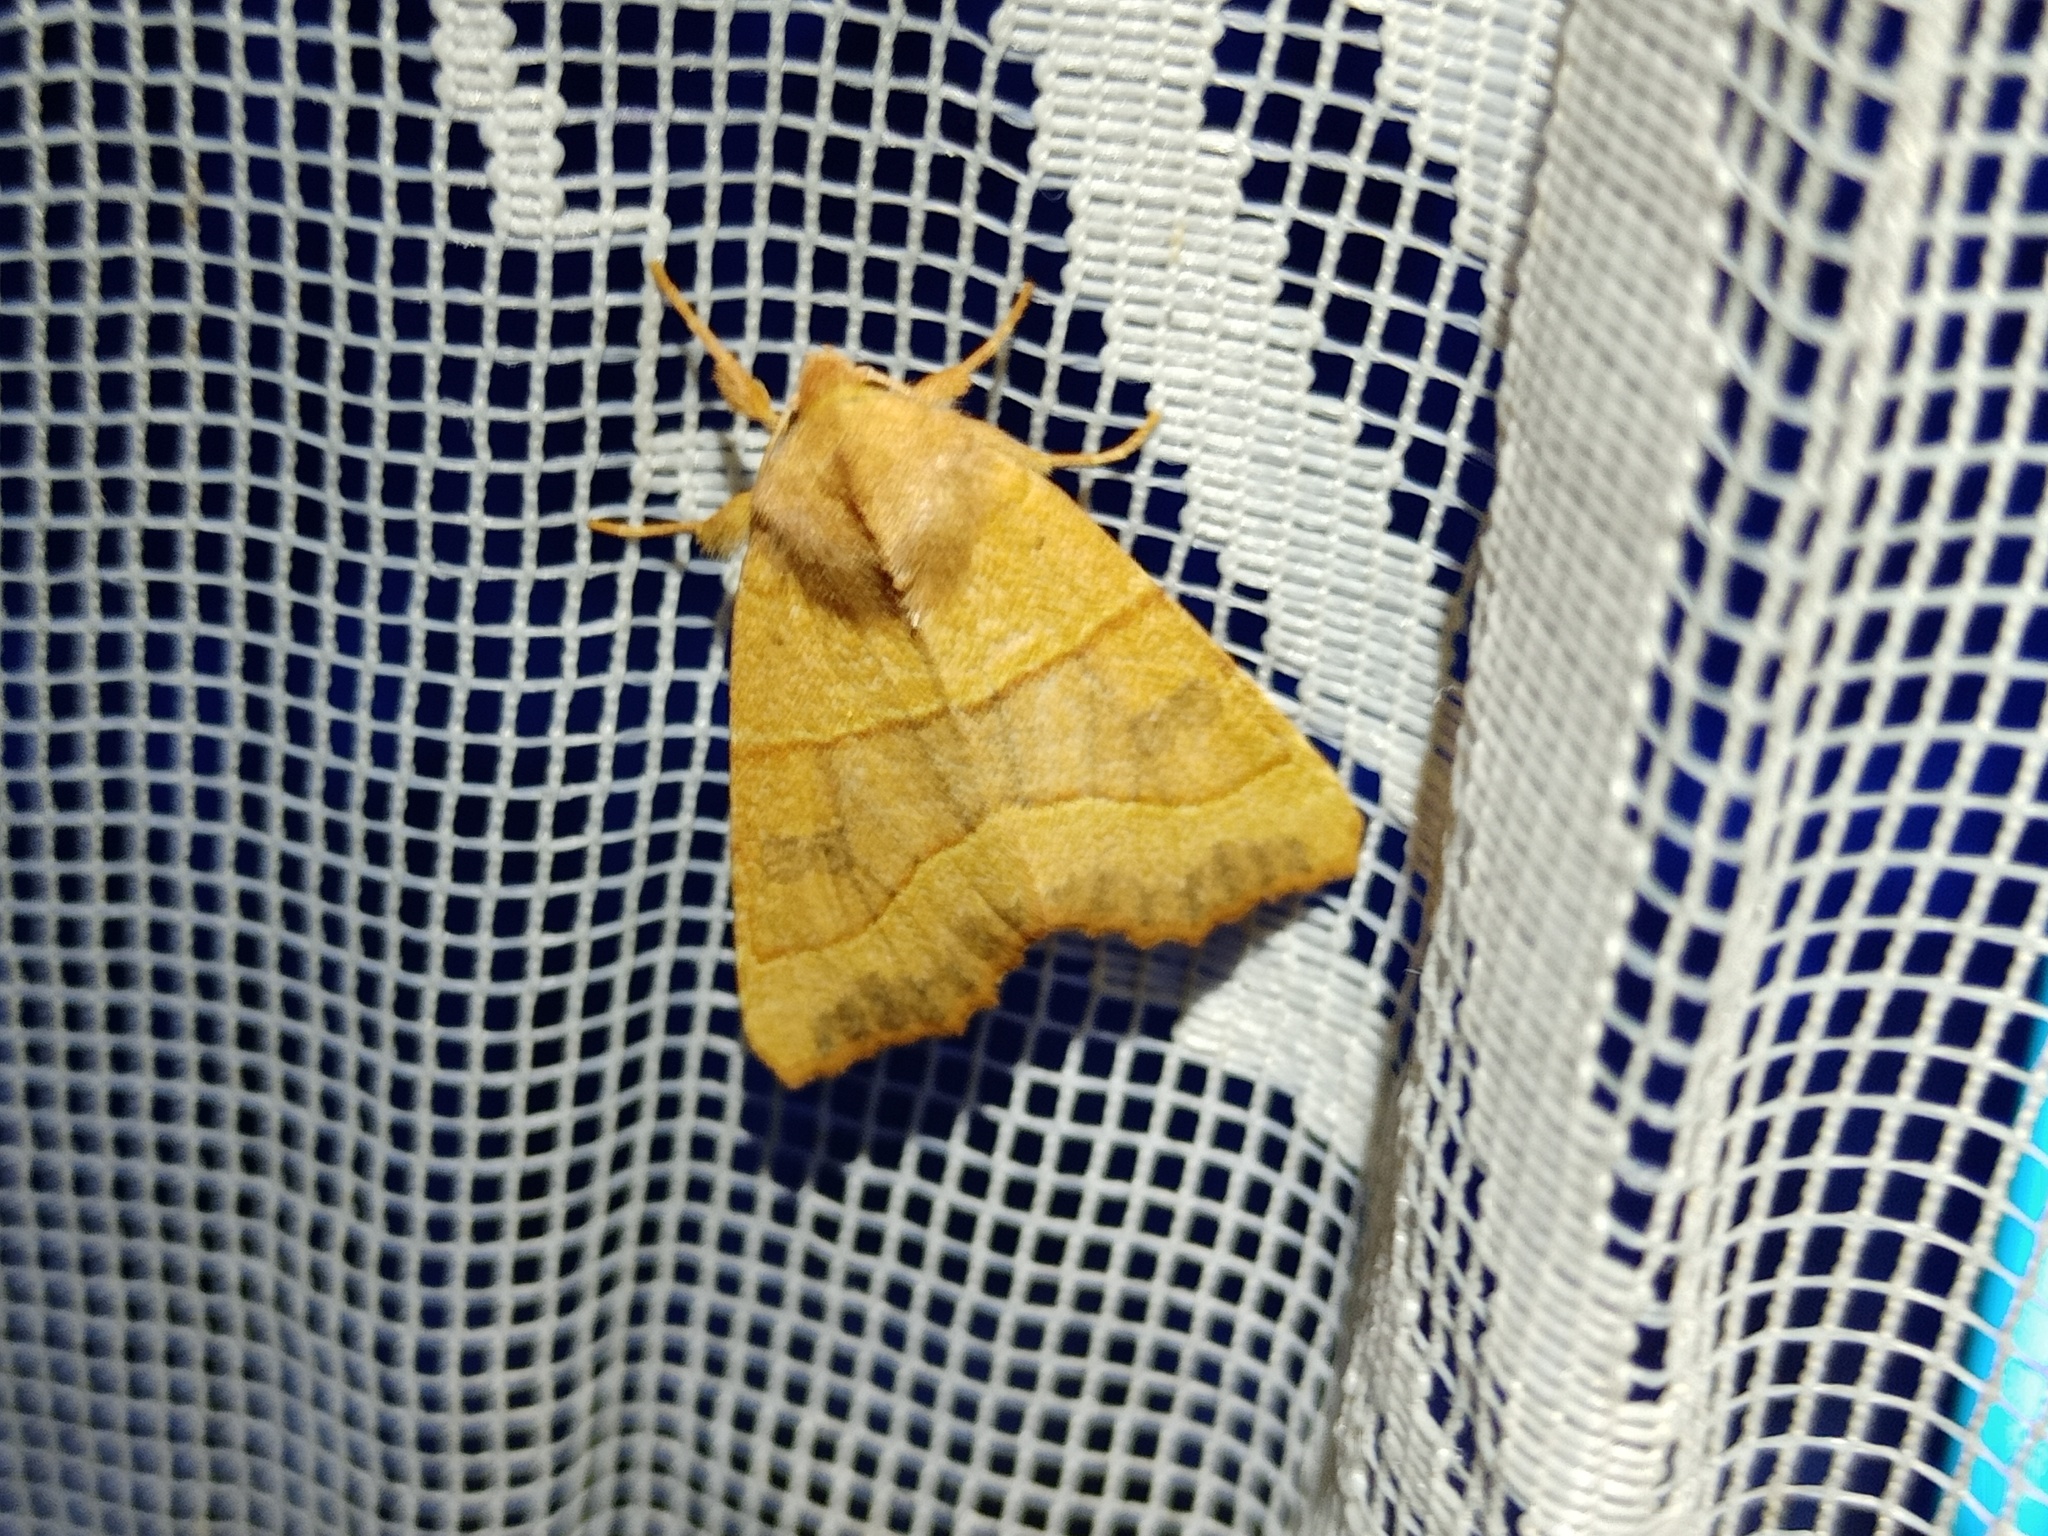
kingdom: Animalia
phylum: Arthropoda
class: Insecta
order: Lepidoptera
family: Noctuidae
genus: Atethmia
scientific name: Atethmia centrago
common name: Centre-barred sallow
